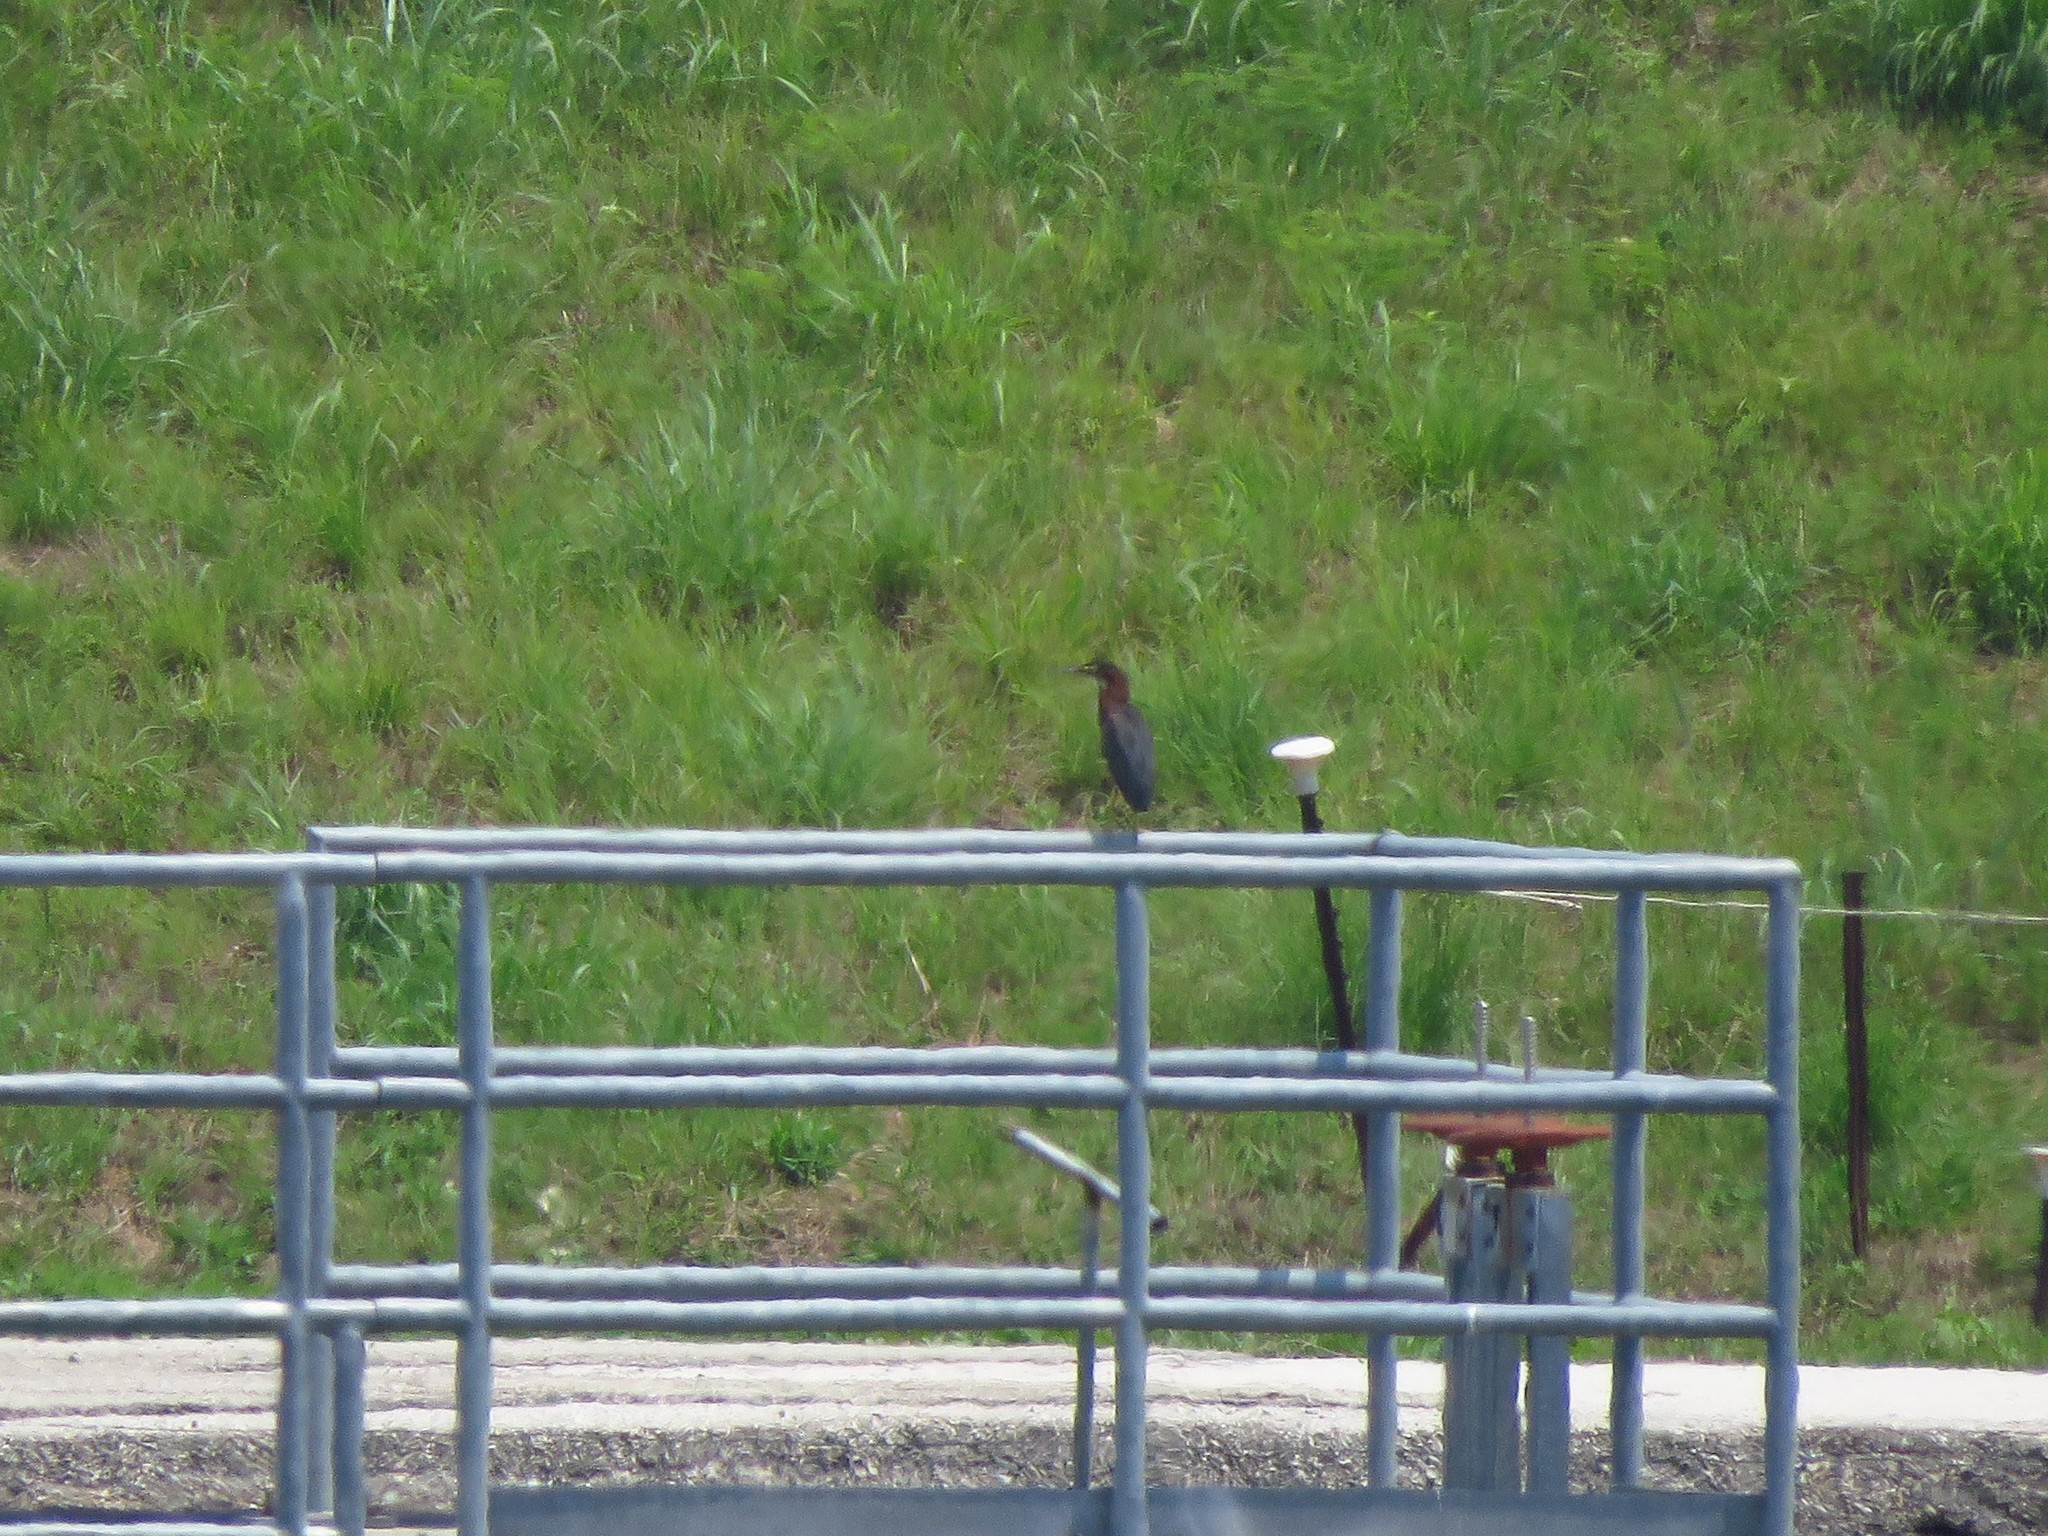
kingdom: Animalia
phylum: Chordata
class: Aves
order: Pelecaniformes
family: Ardeidae
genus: Butorides
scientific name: Butorides virescens
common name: Green heron
